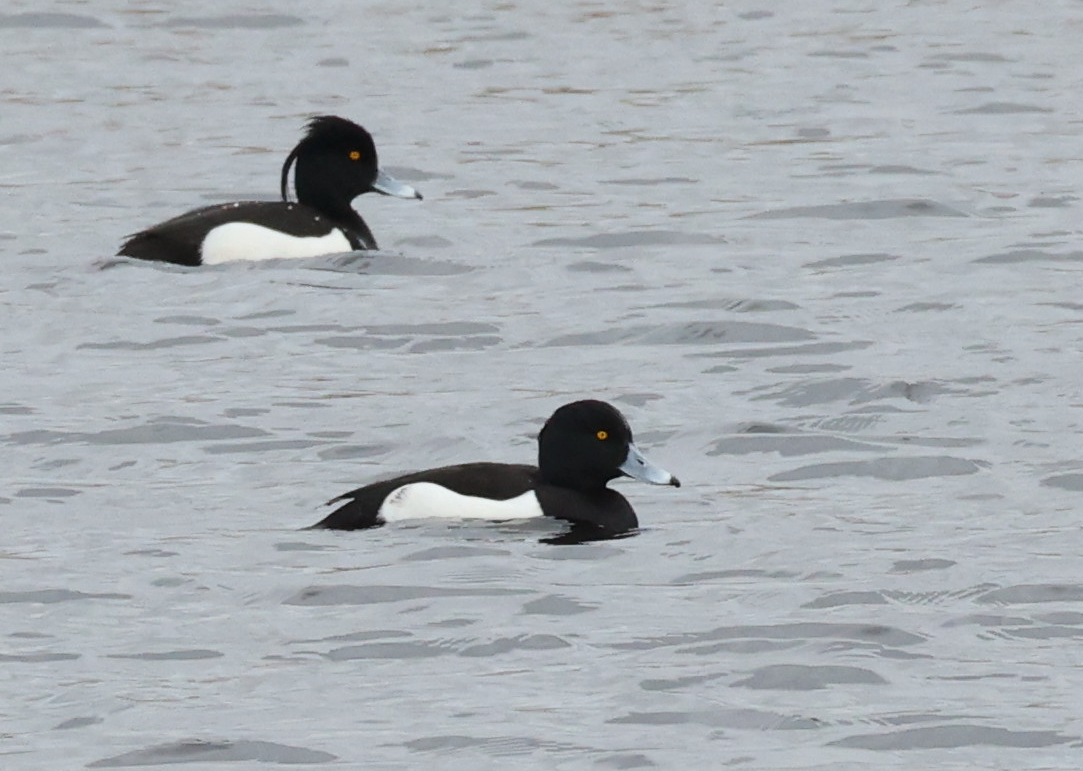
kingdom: Animalia
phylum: Chordata
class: Aves
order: Anseriformes
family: Anatidae
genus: Aythya
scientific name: Aythya fuligula
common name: Tufted duck
